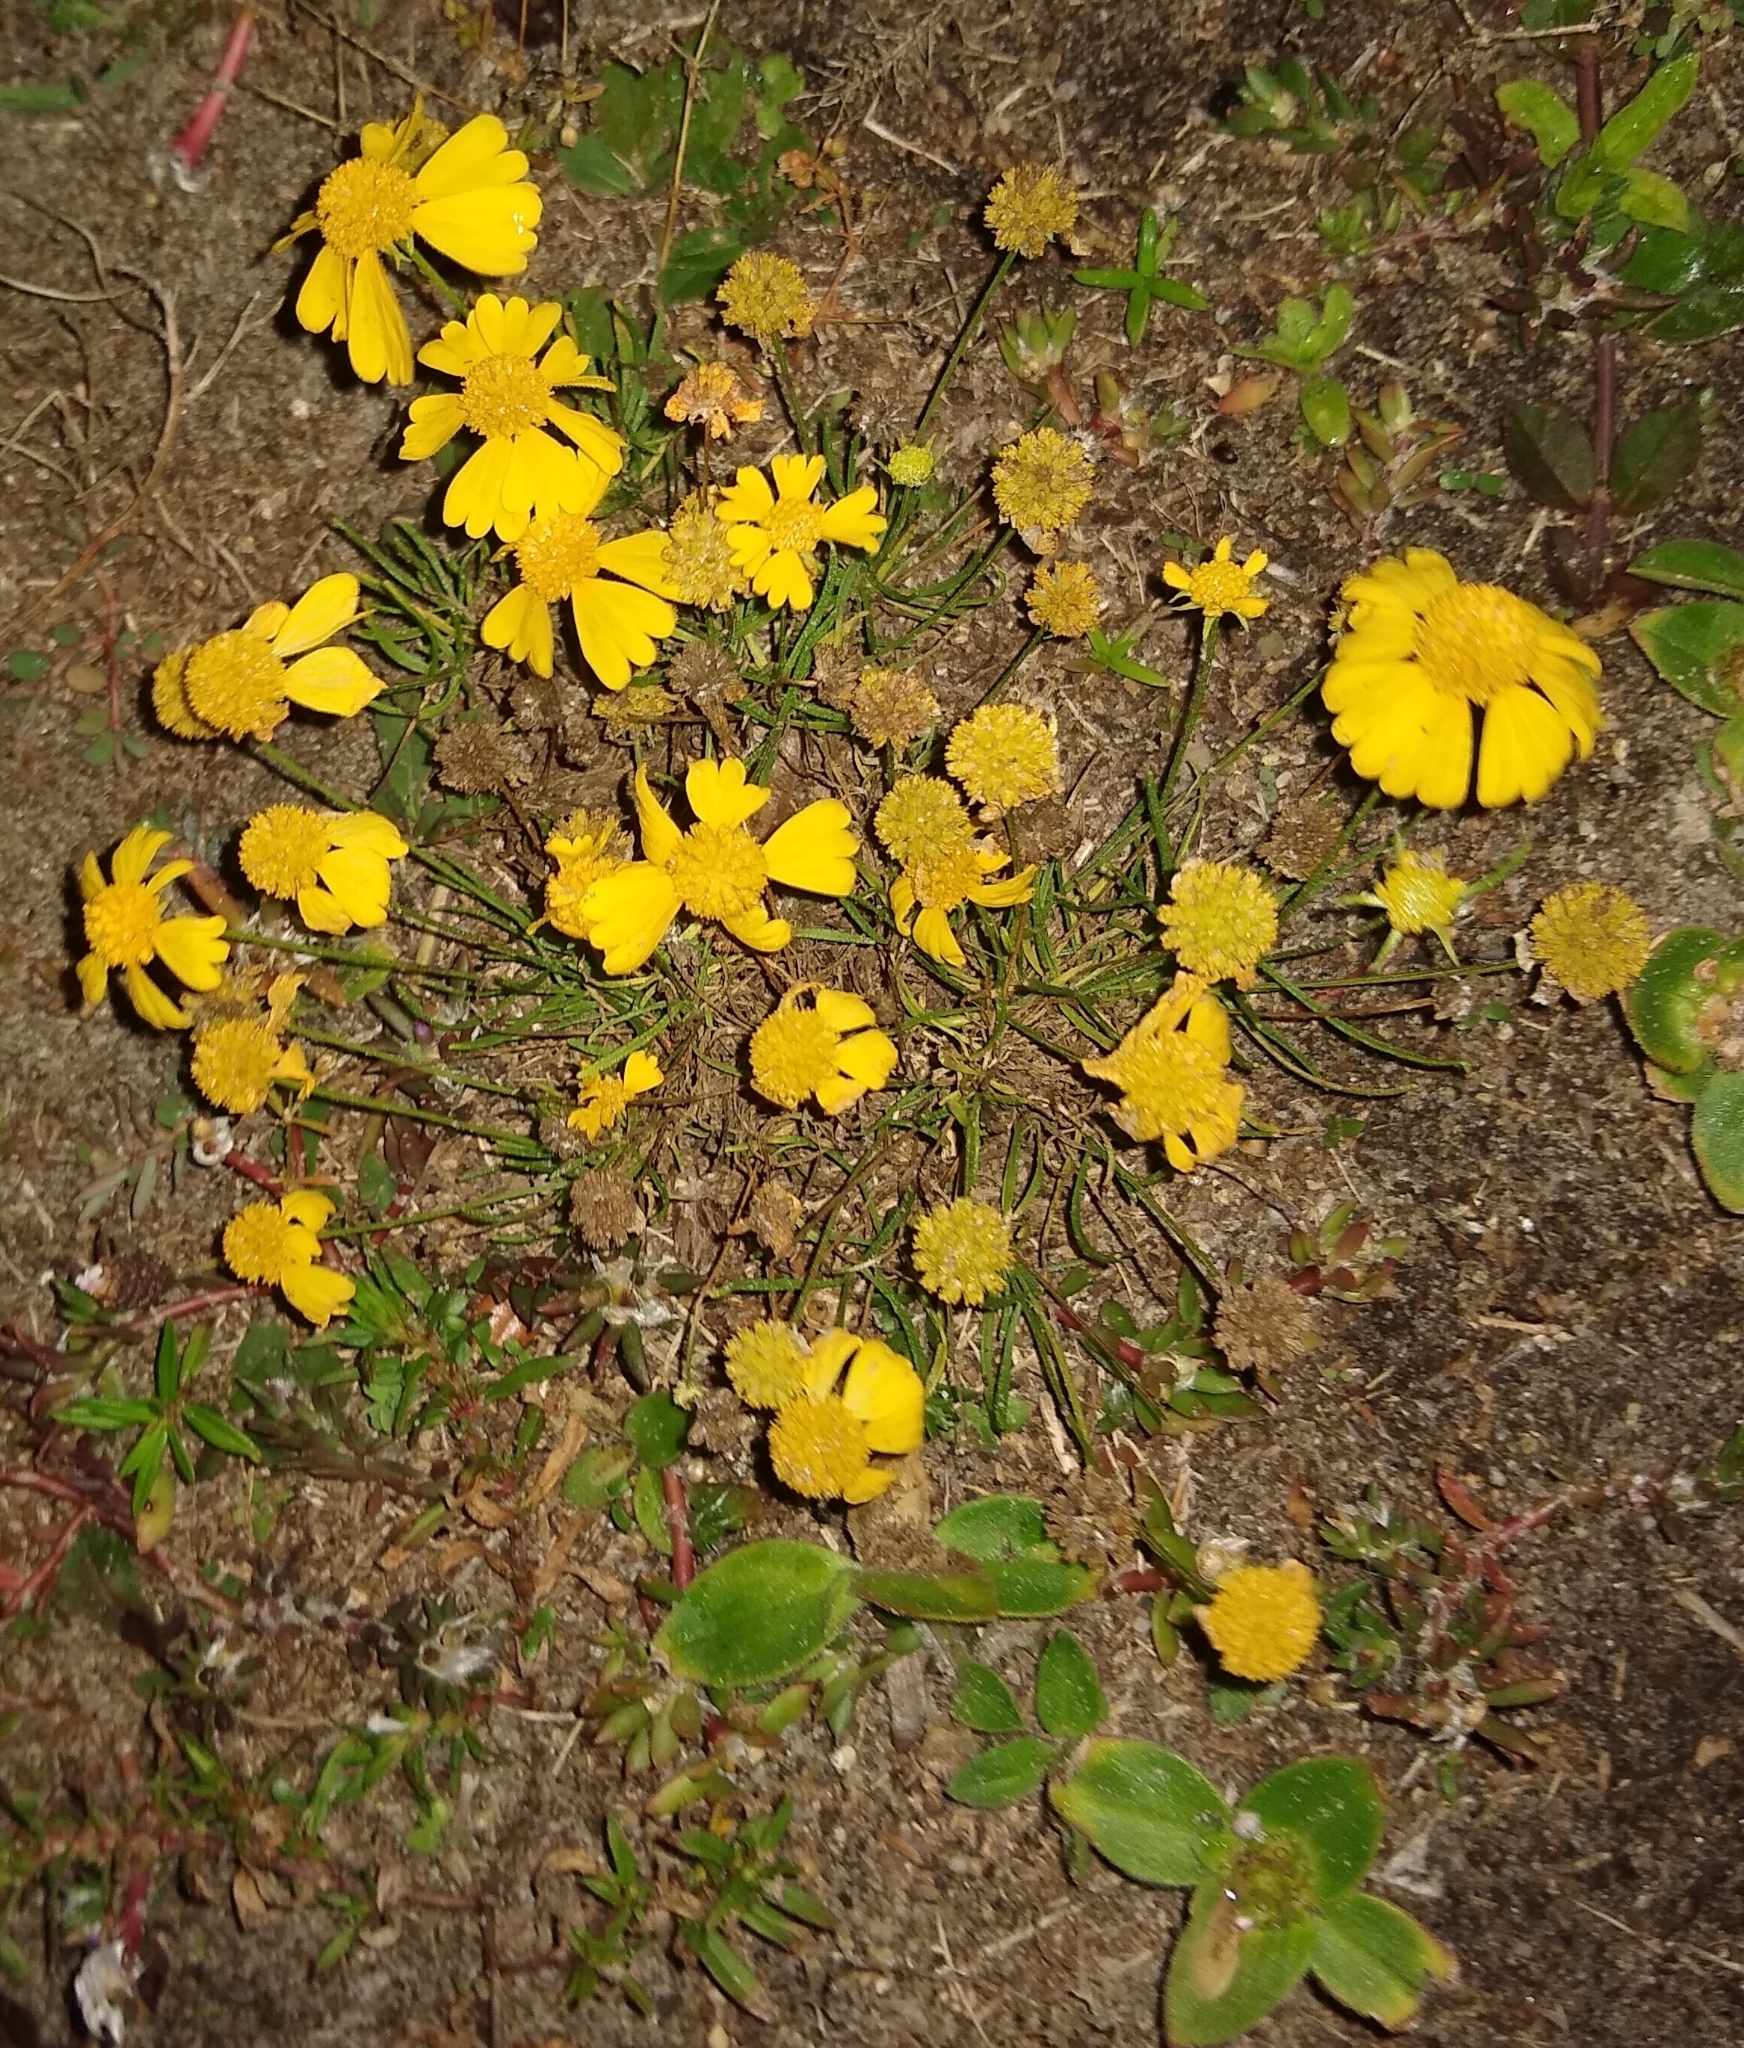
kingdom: Plantae
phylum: Tracheophyta
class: Magnoliopsida
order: Asterales
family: Asteraceae
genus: Helenium
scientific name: Helenium amarum
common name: Bitter sneezeweed
